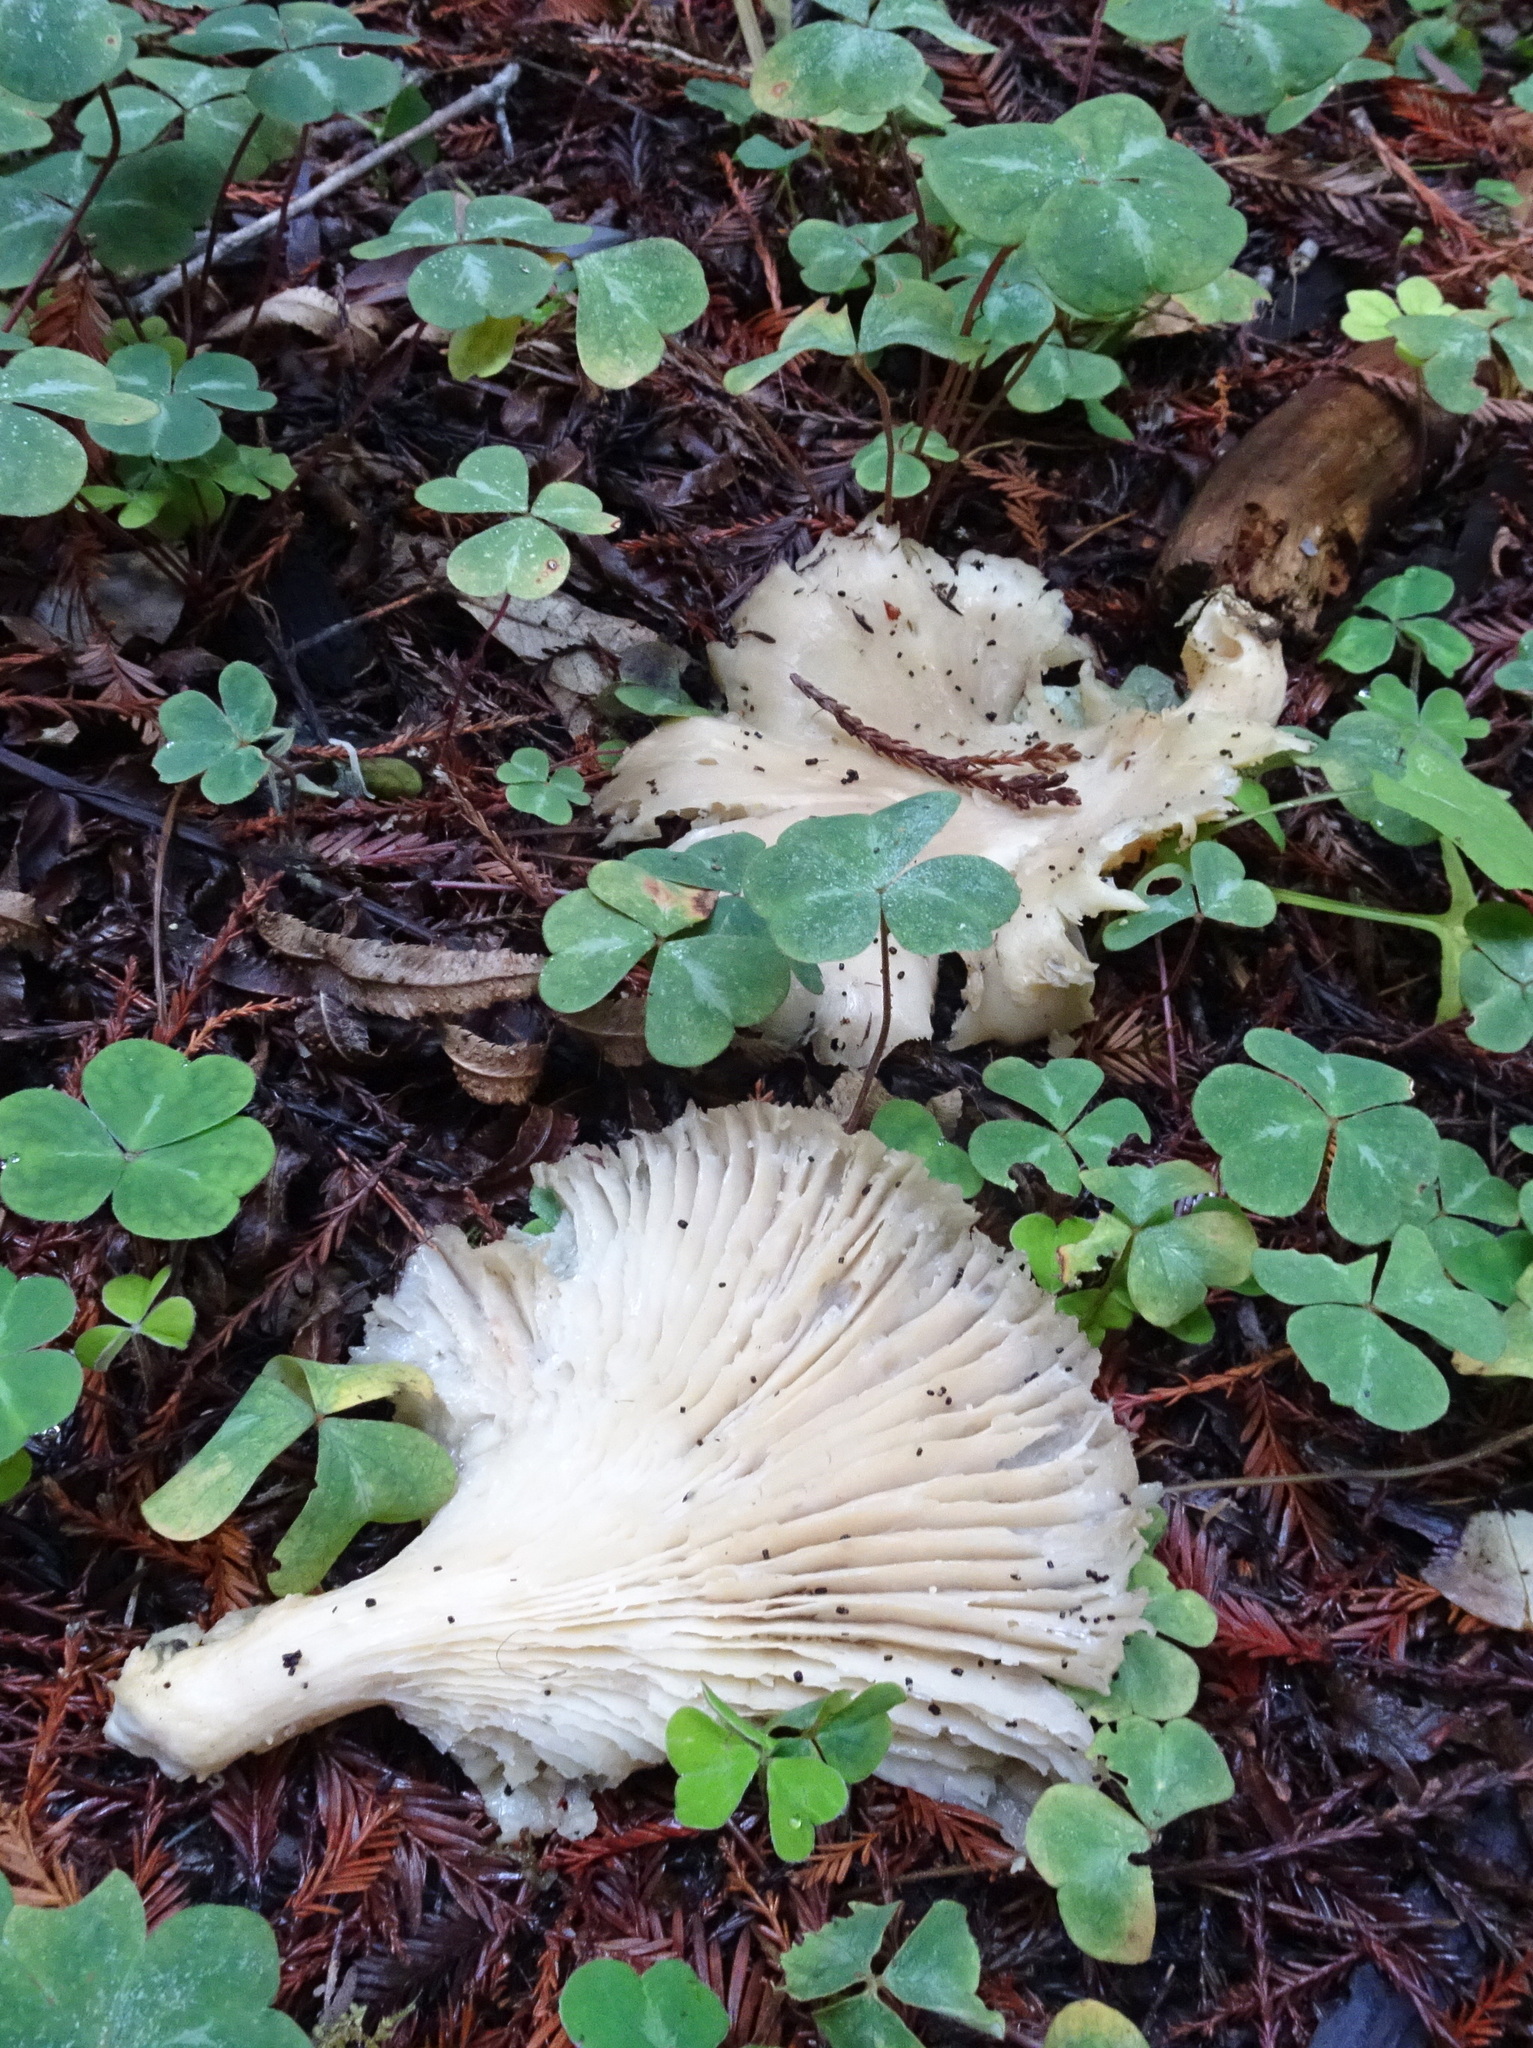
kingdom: Fungi
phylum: Basidiomycota
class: Agaricomycetes
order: Agaricales
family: Pleurotaceae
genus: Pleurotus
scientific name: Pleurotus ostreatus
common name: Oyster mushroom
